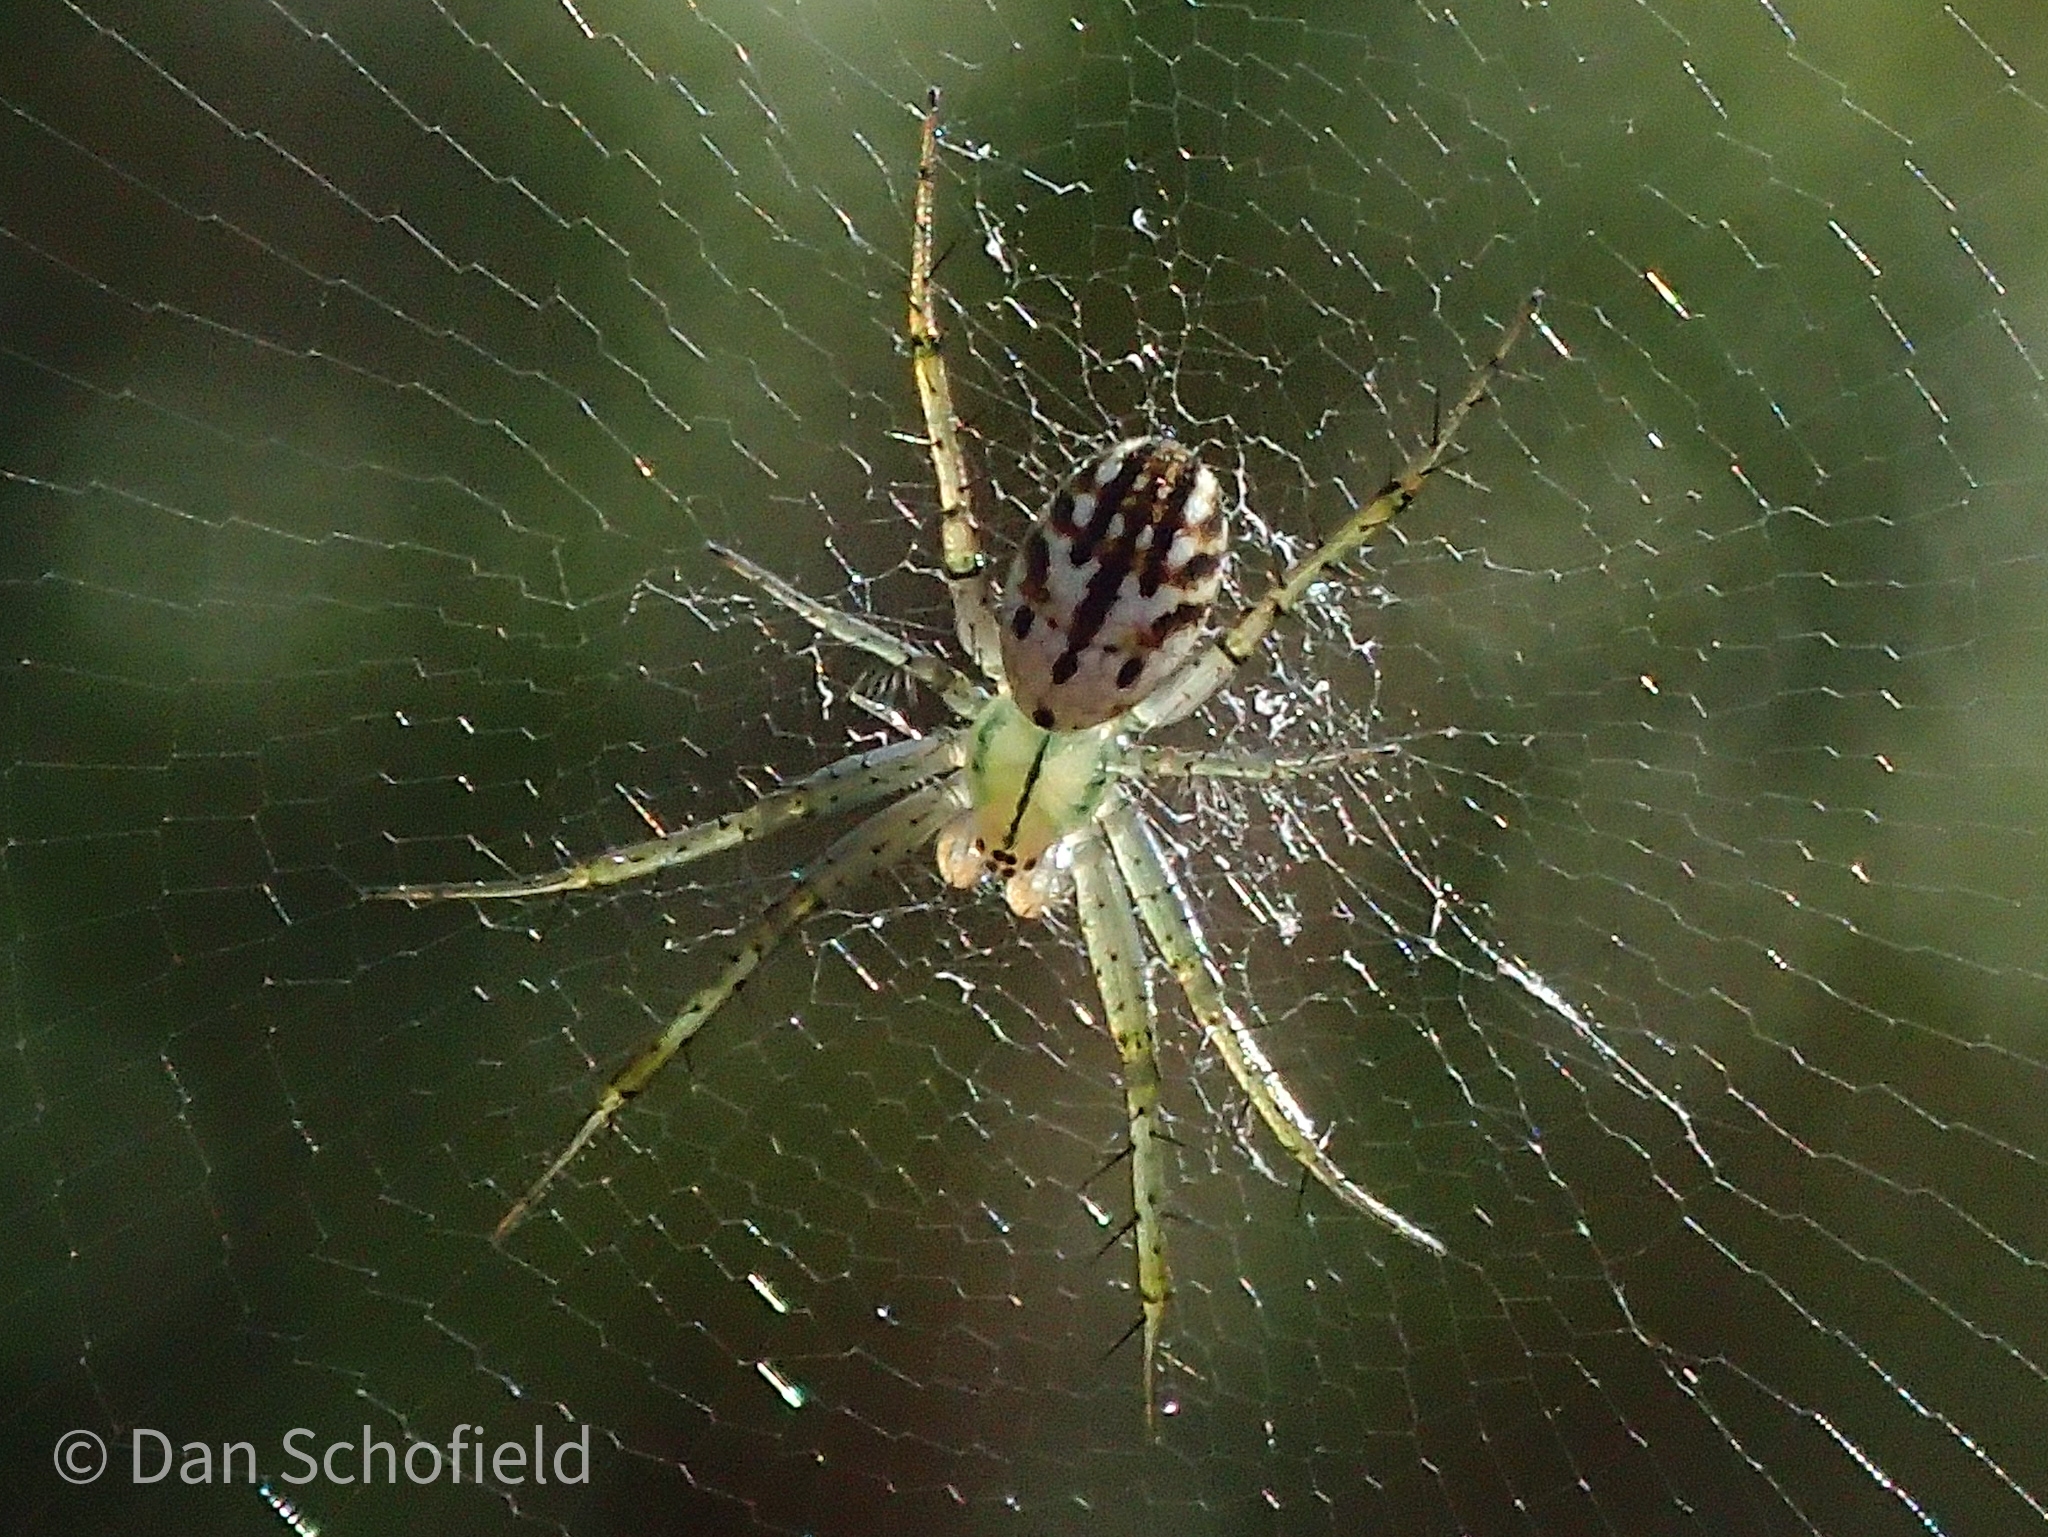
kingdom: Animalia
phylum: Arthropoda
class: Arachnida
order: Araneae
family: Araneidae
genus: Mangora
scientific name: Mangora gibberosa
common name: Lined orbweaver
